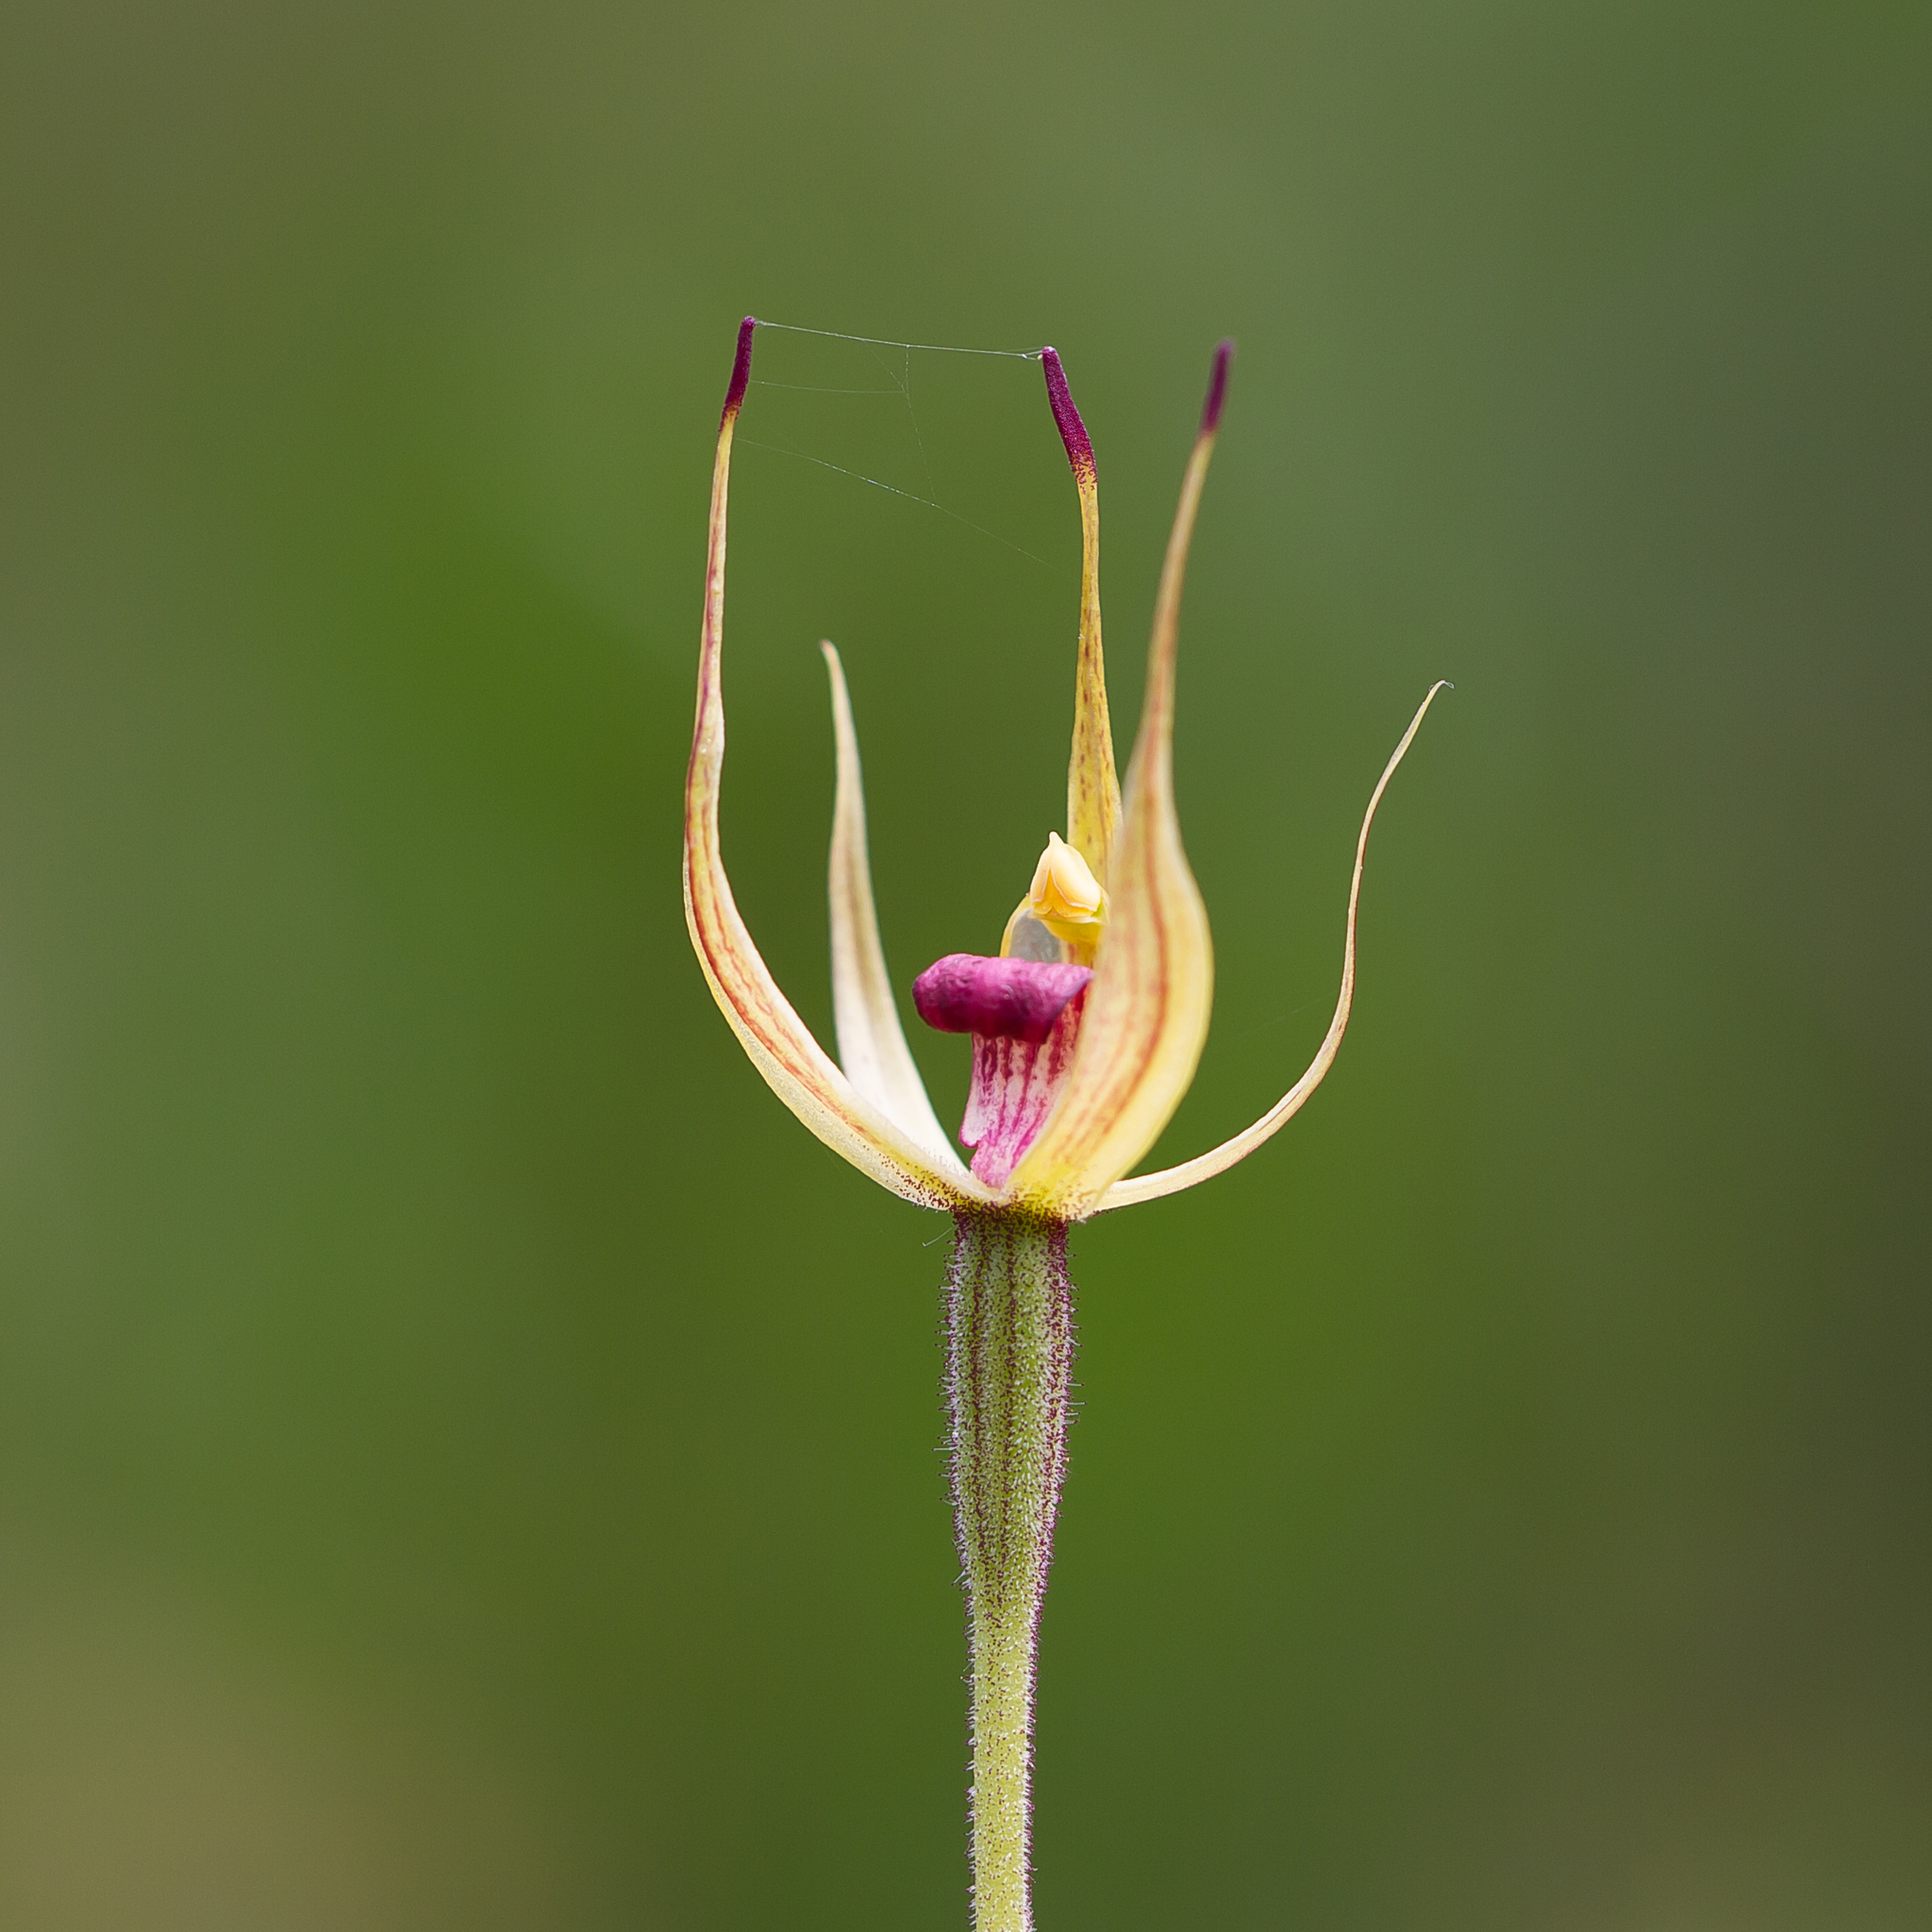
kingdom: Plantae
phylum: Tracheophyta
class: Liliopsida
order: Asparagales
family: Orchidaceae
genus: Caladenia
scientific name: Caladenia leptochila
